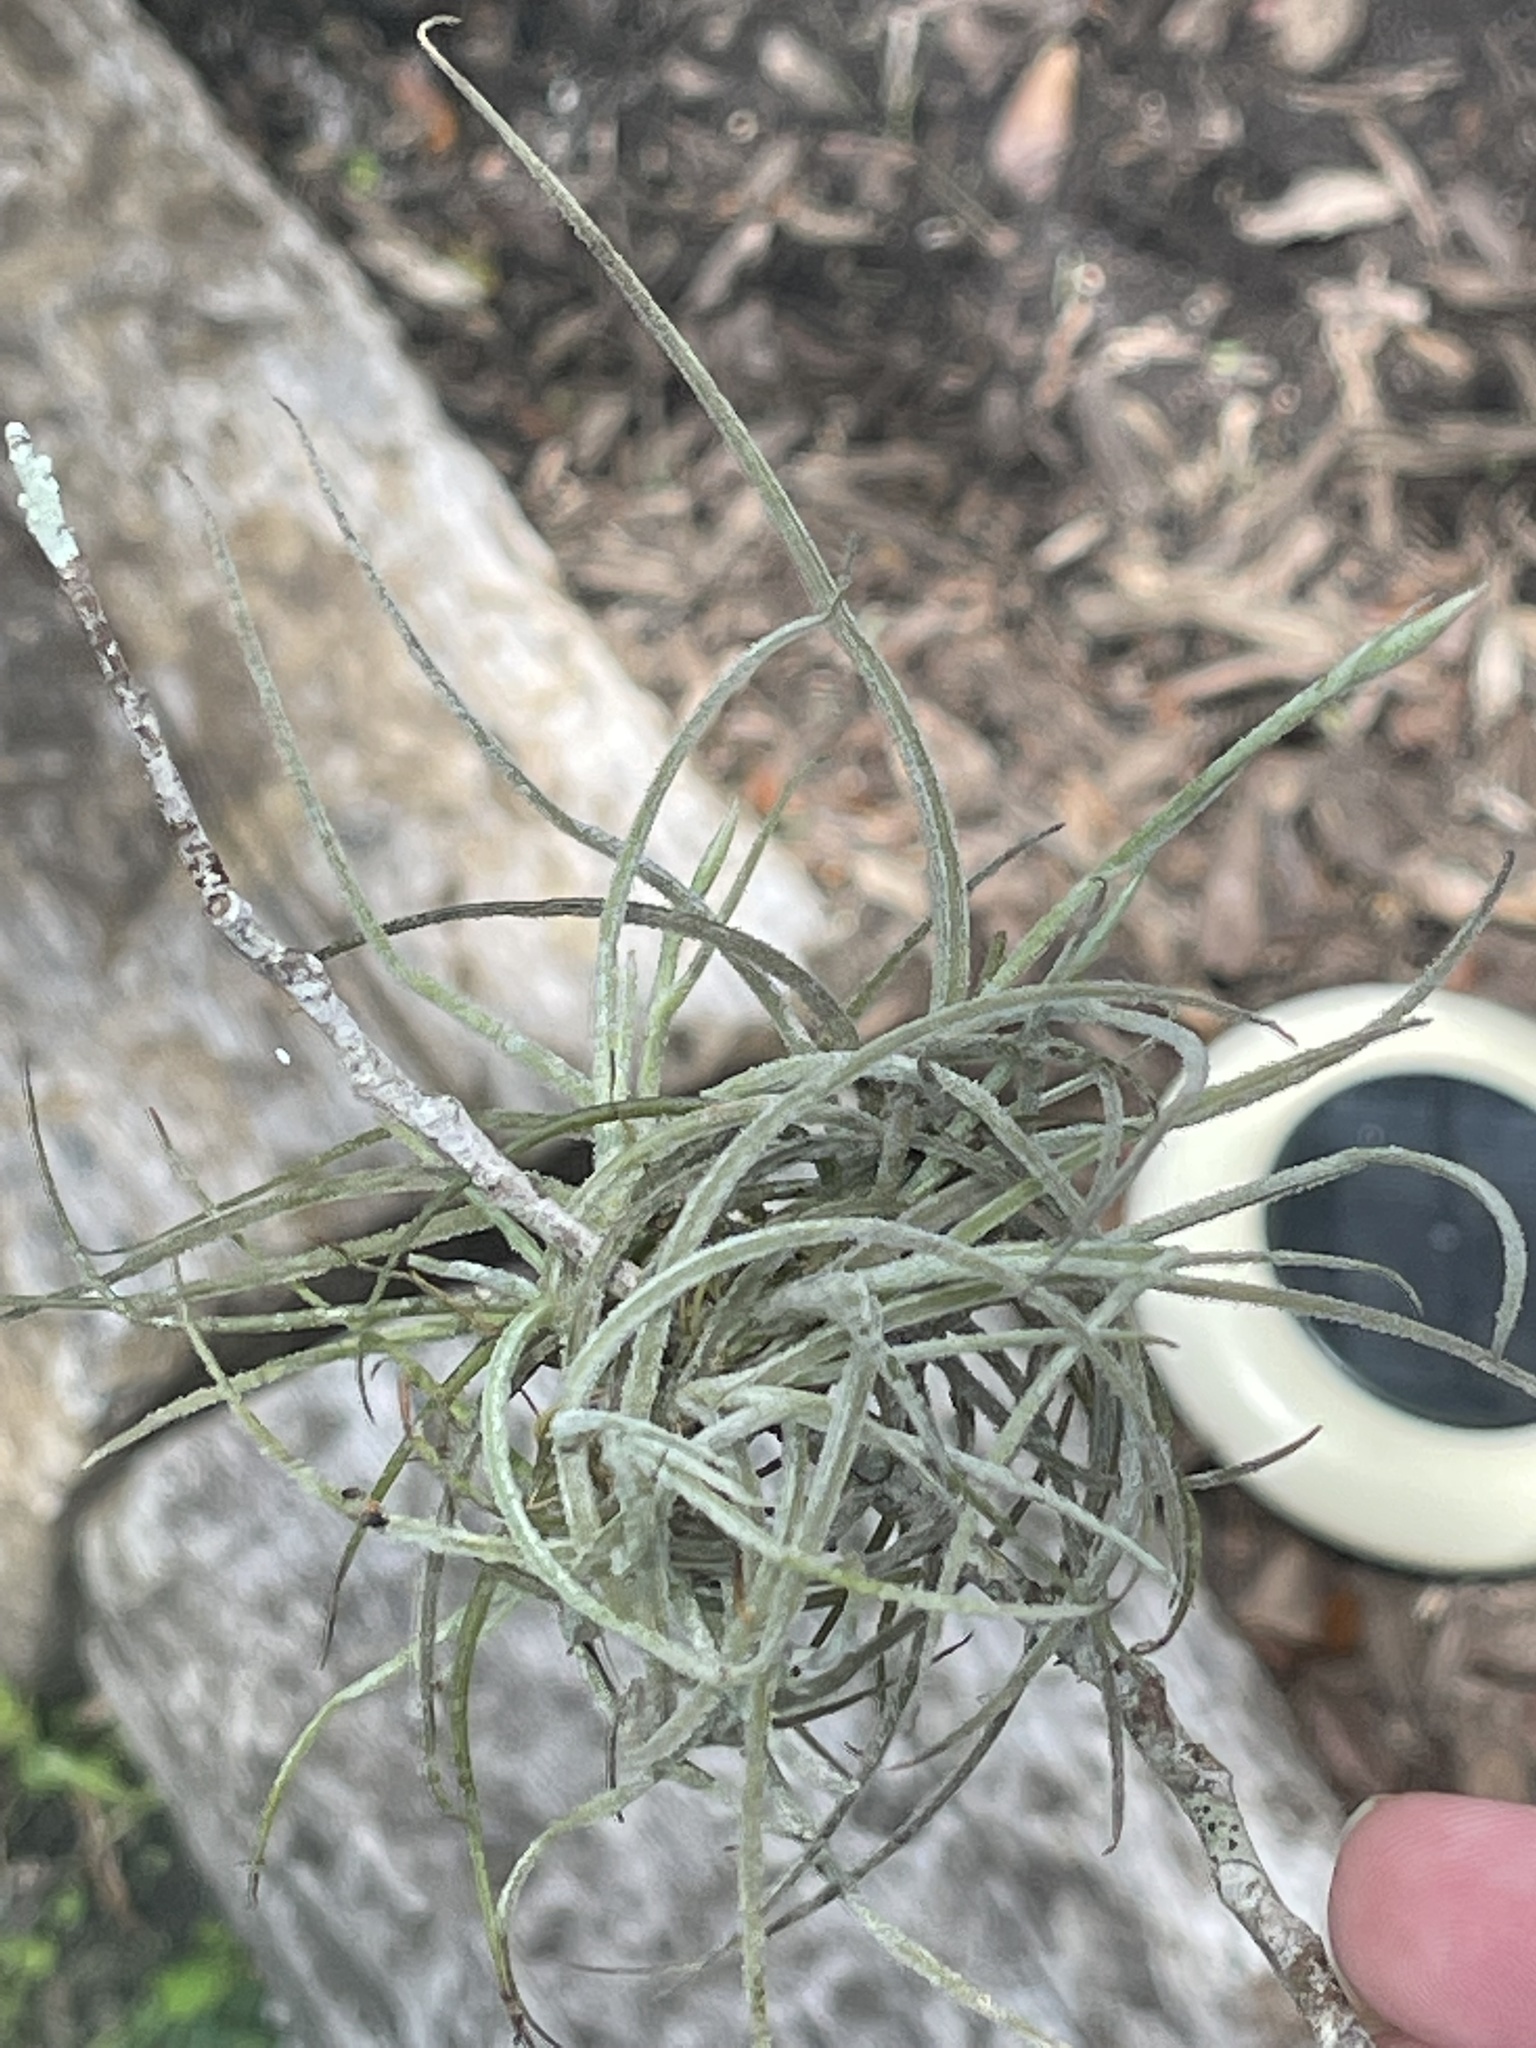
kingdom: Plantae
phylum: Tracheophyta
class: Liliopsida
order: Poales
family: Bromeliaceae
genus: Tillandsia
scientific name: Tillandsia recurvata
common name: Small ballmoss
